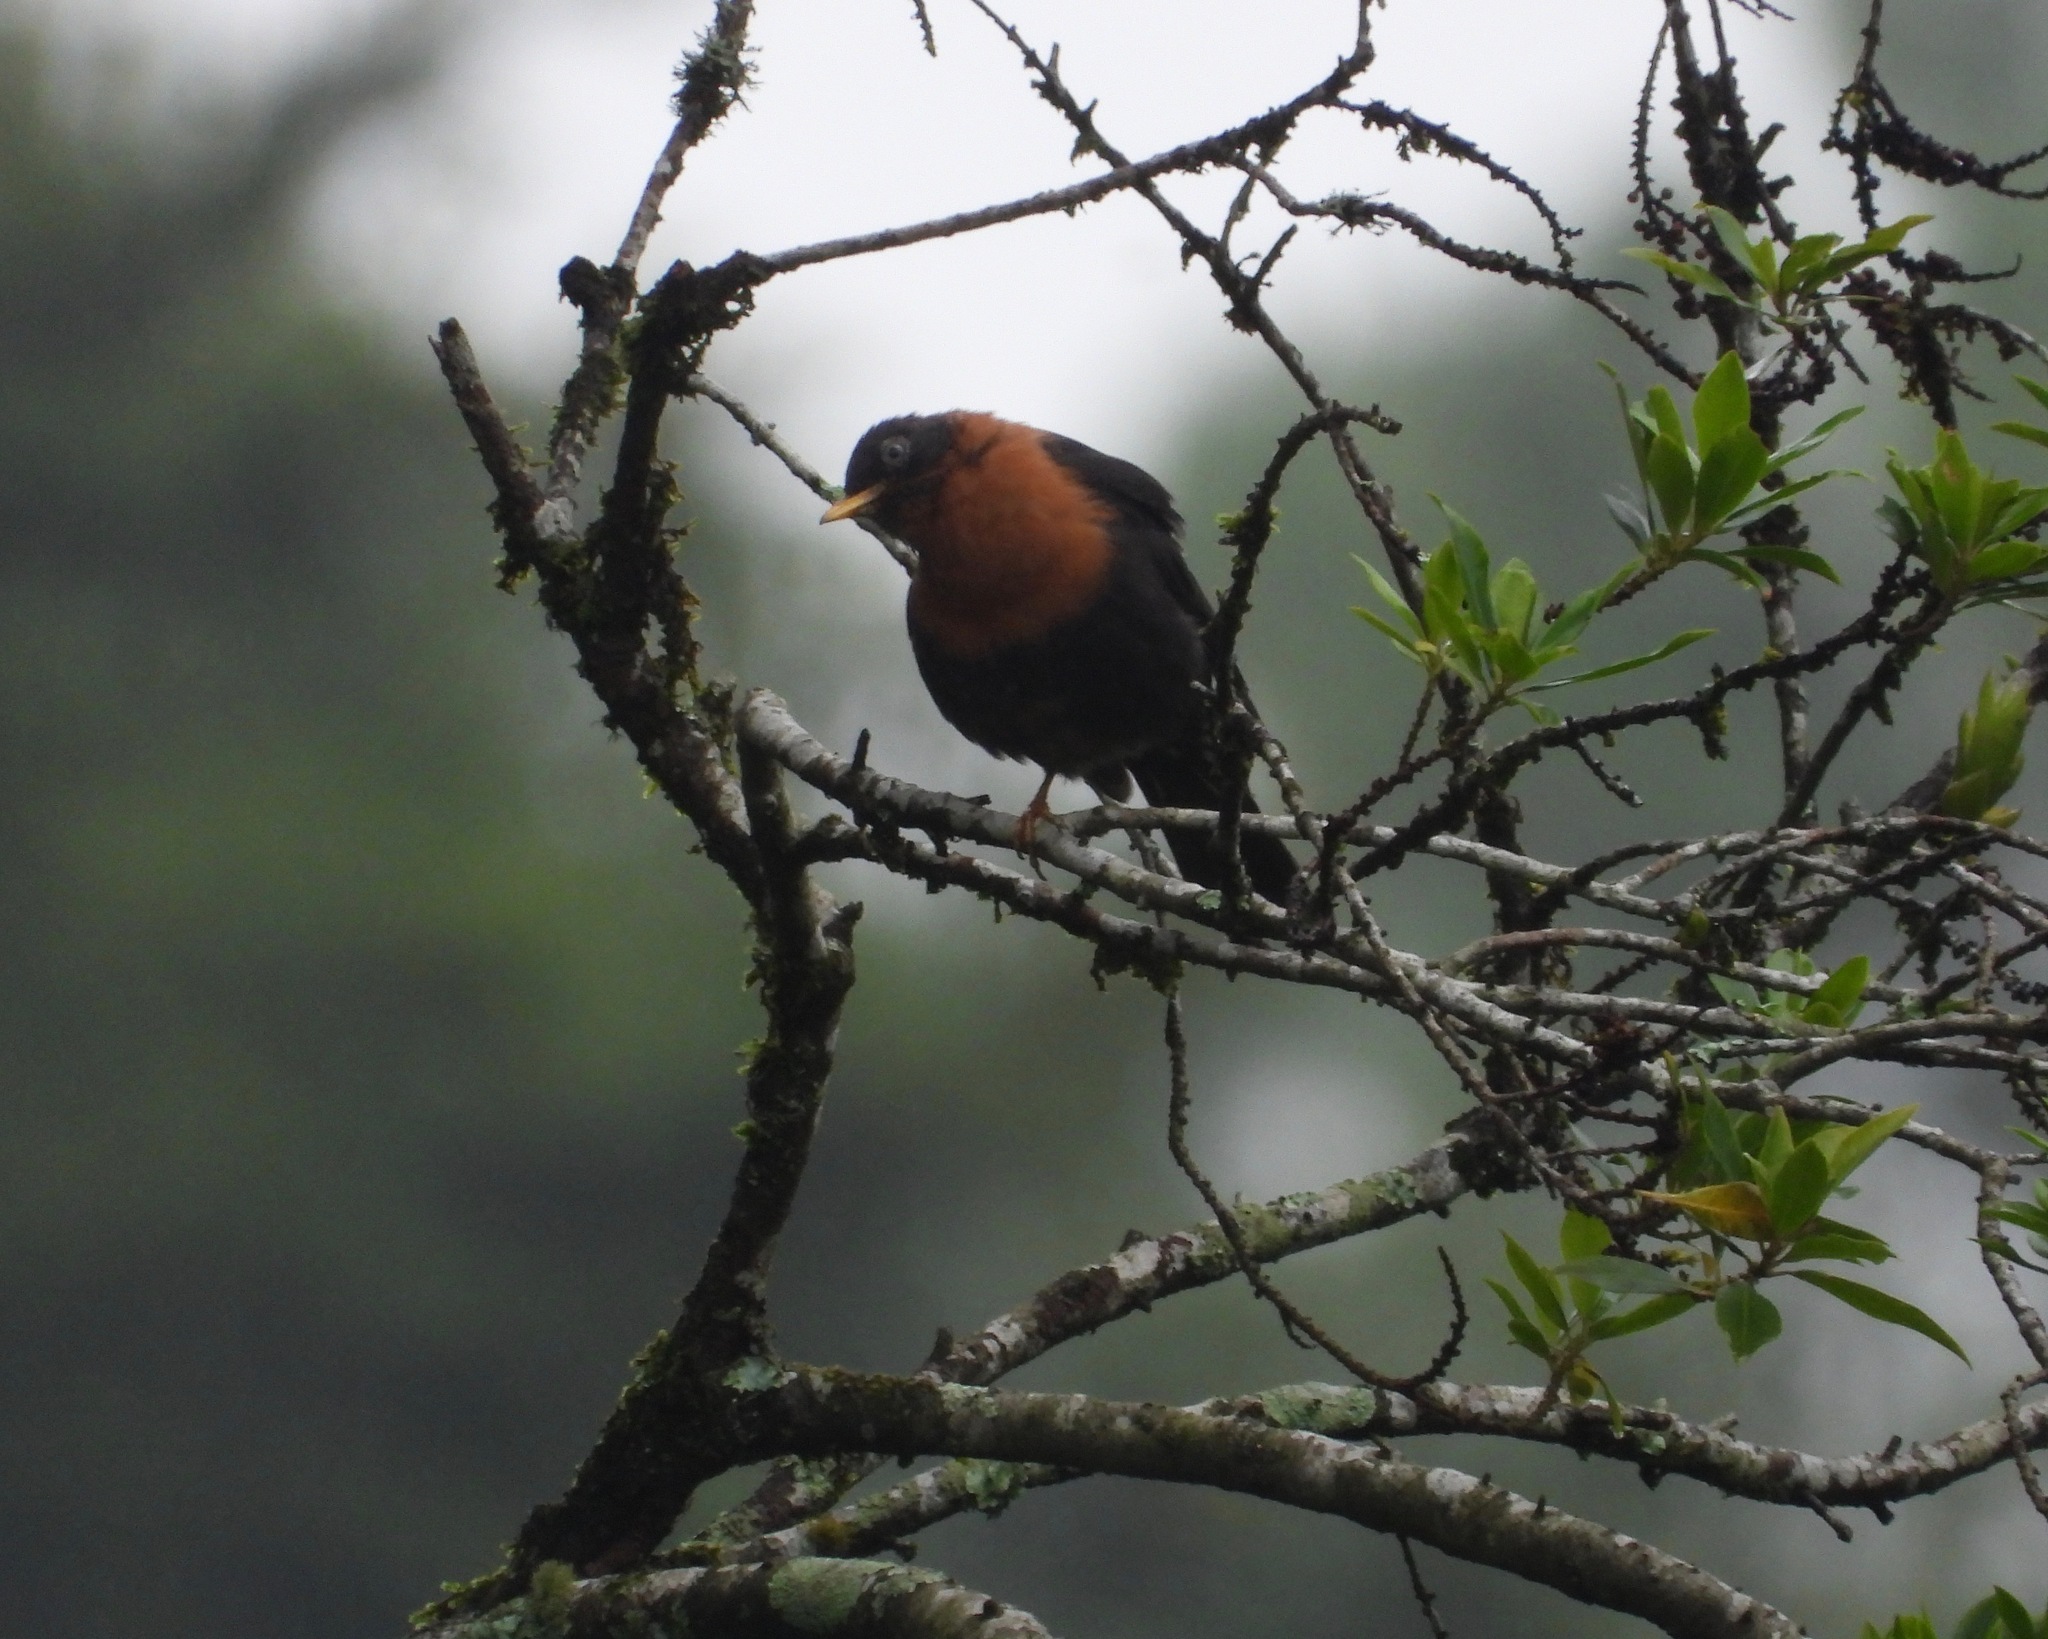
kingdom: Animalia
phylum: Chordata
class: Aves
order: Passeriformes
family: Turdidae
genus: Turdus
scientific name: Turdus rufitorques
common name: Rufous-collared thrush
